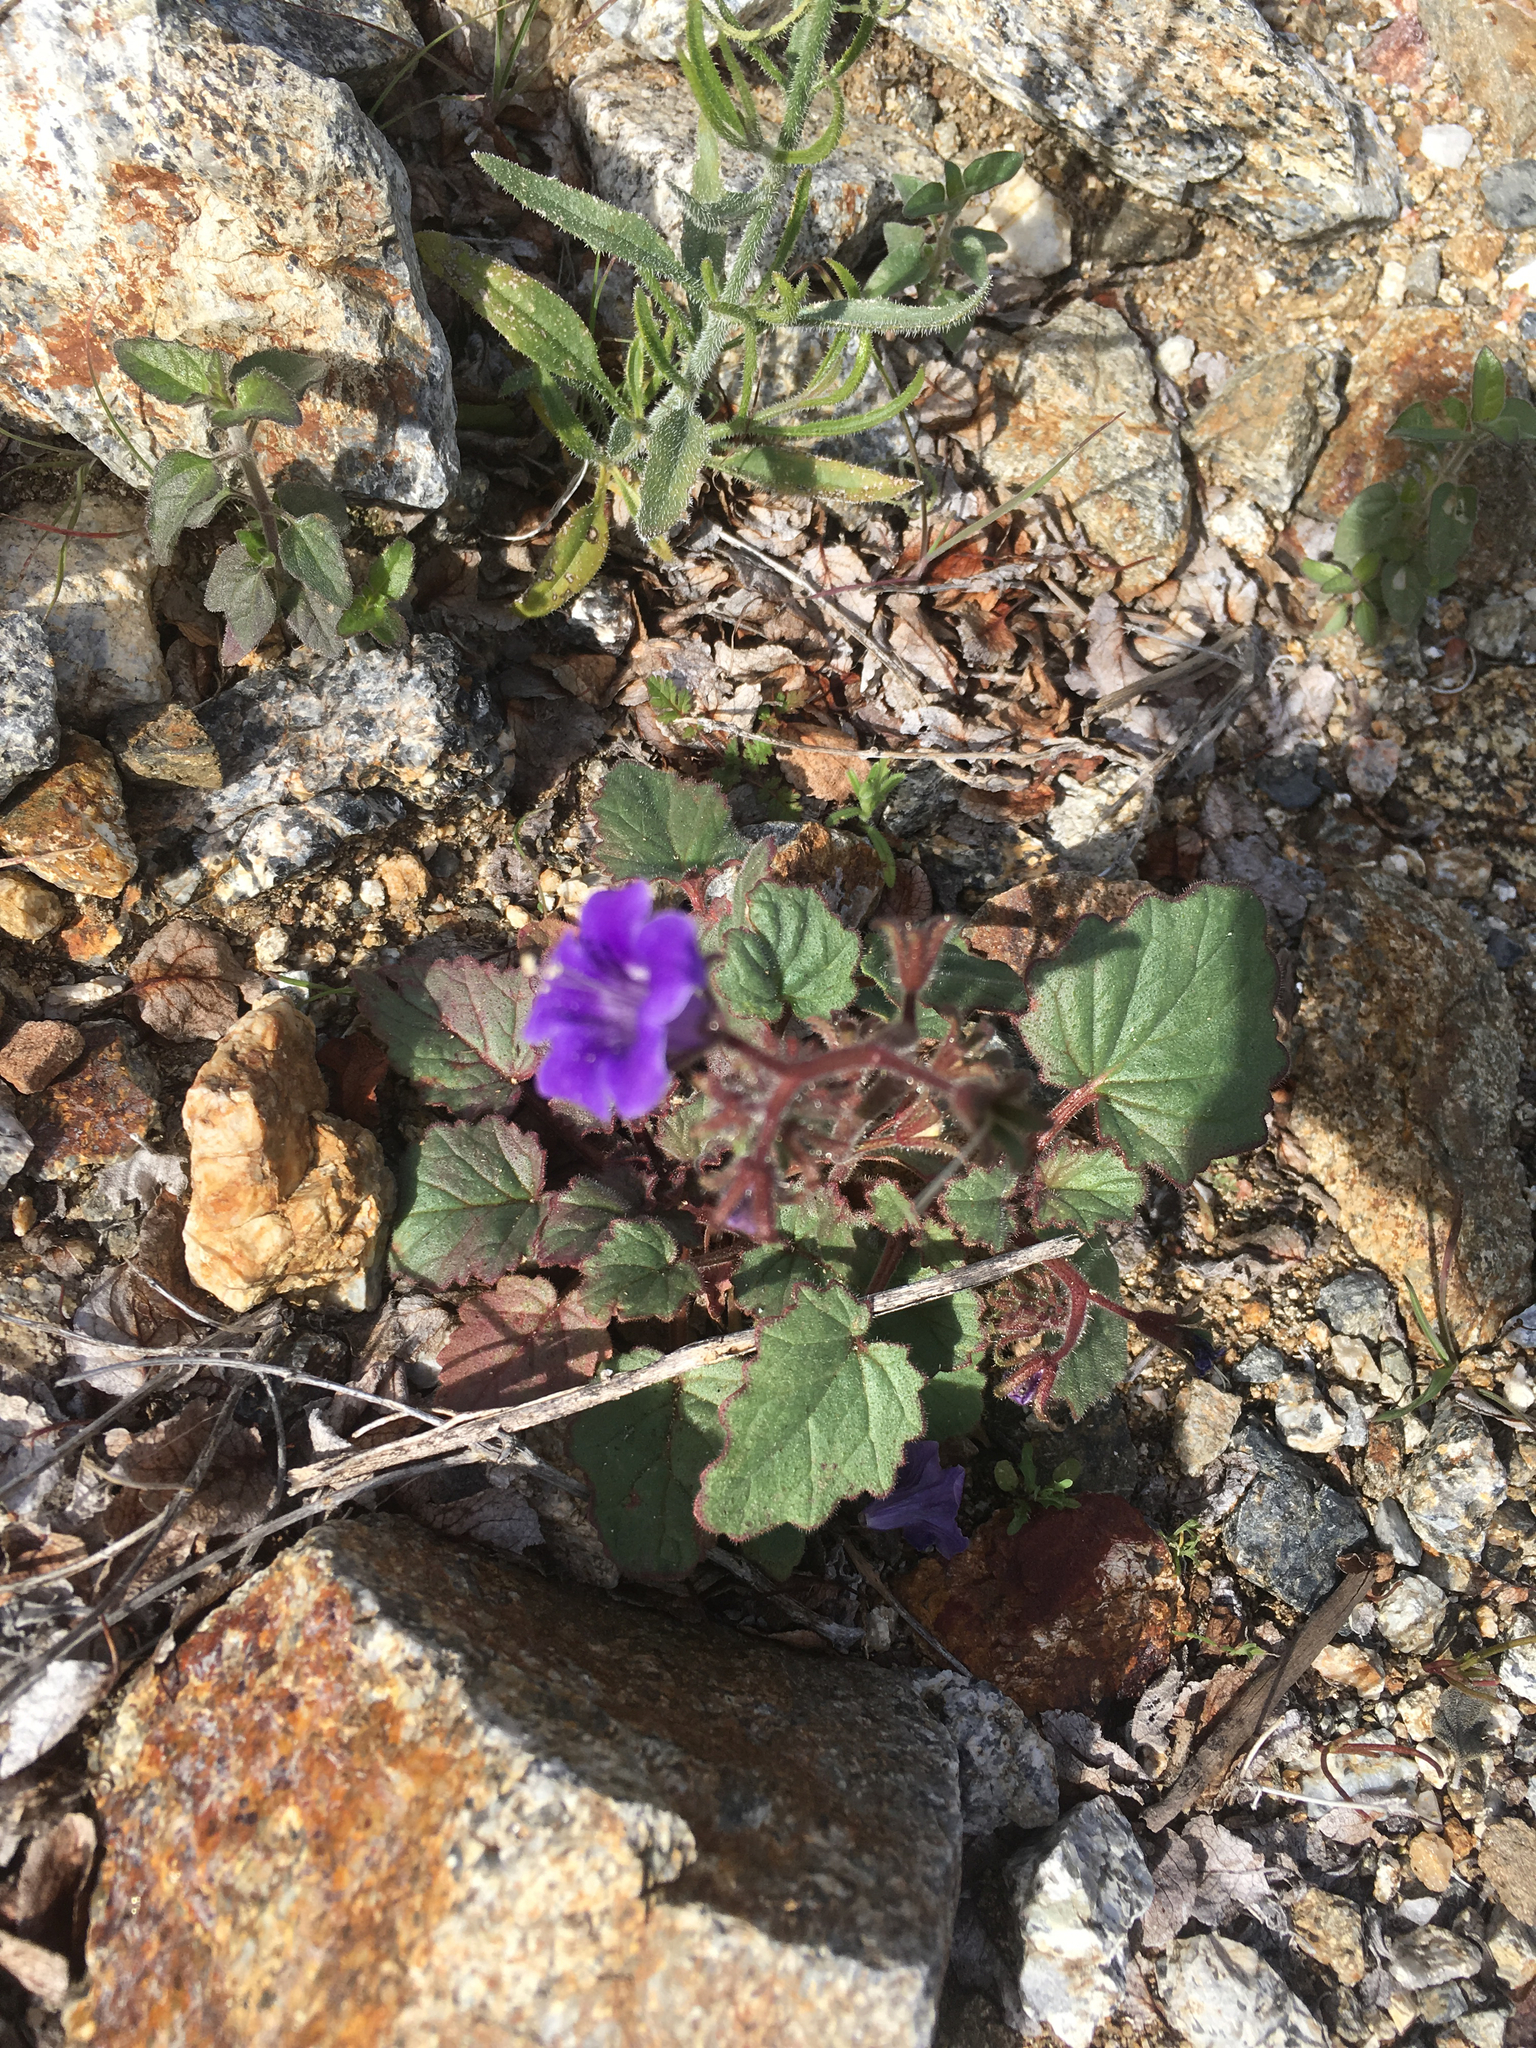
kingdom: Plantae
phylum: Tracheophyta
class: Magnoliopsida
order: Boraginales
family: Hydrophyllaceae
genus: Phacelia
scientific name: Phacelia minor
